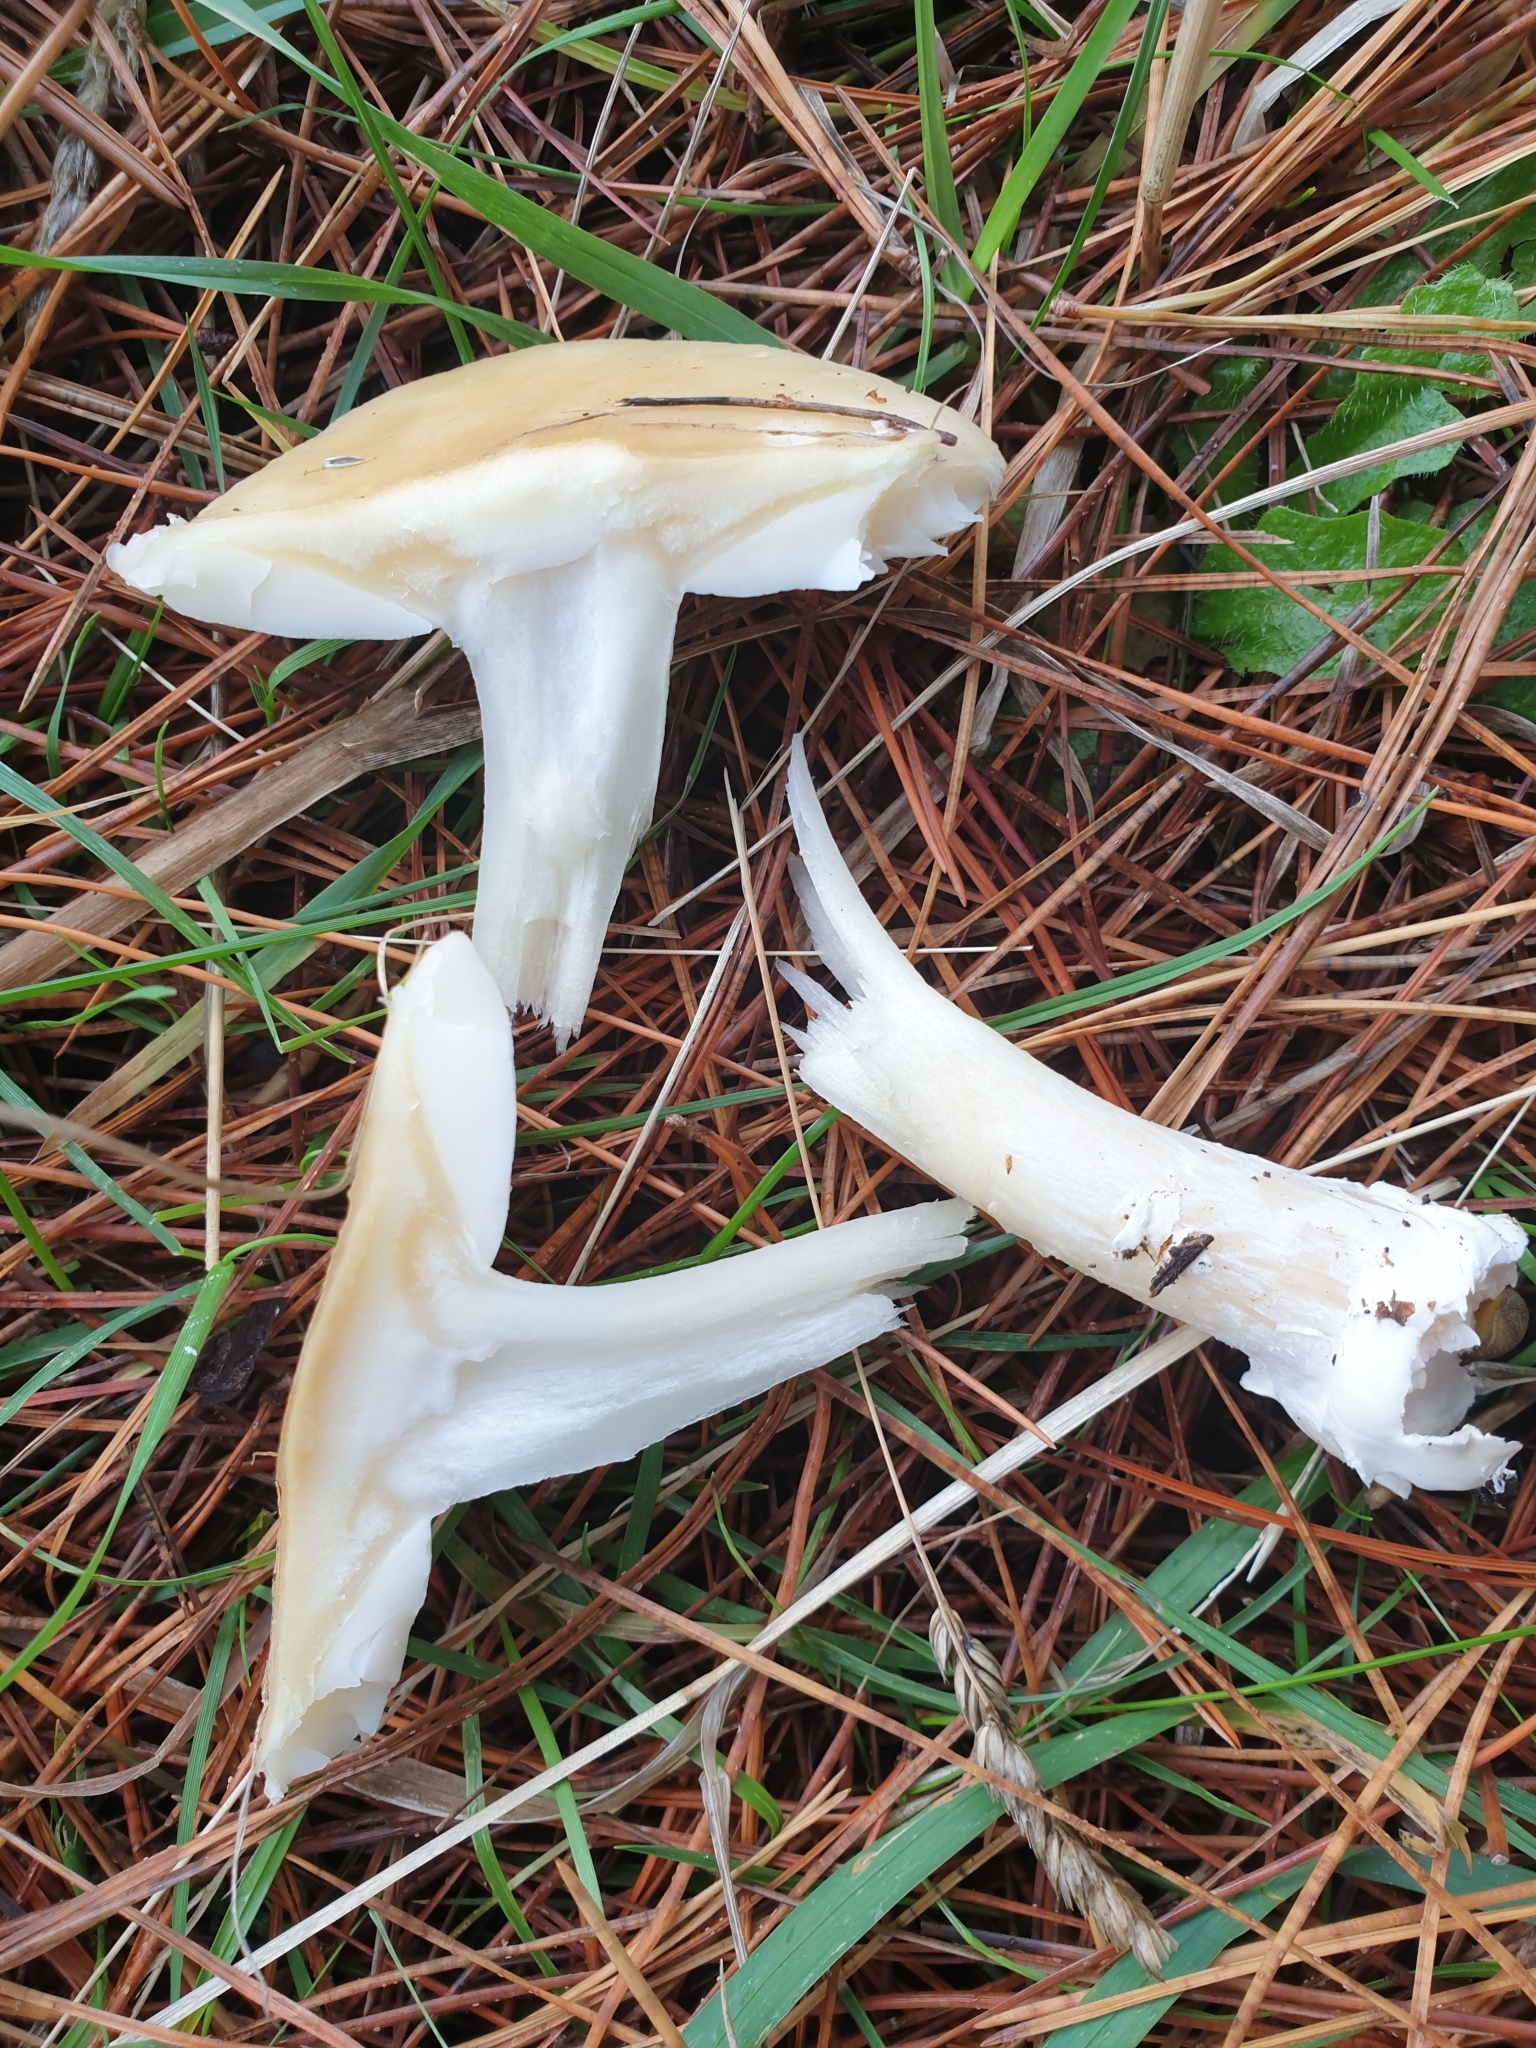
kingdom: Fungi
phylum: Basidiomycota
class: Agaricomycetes
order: Agaricales
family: Amanitaceae
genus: Amanita
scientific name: Amanita gemmata
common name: Jewelled amanita
